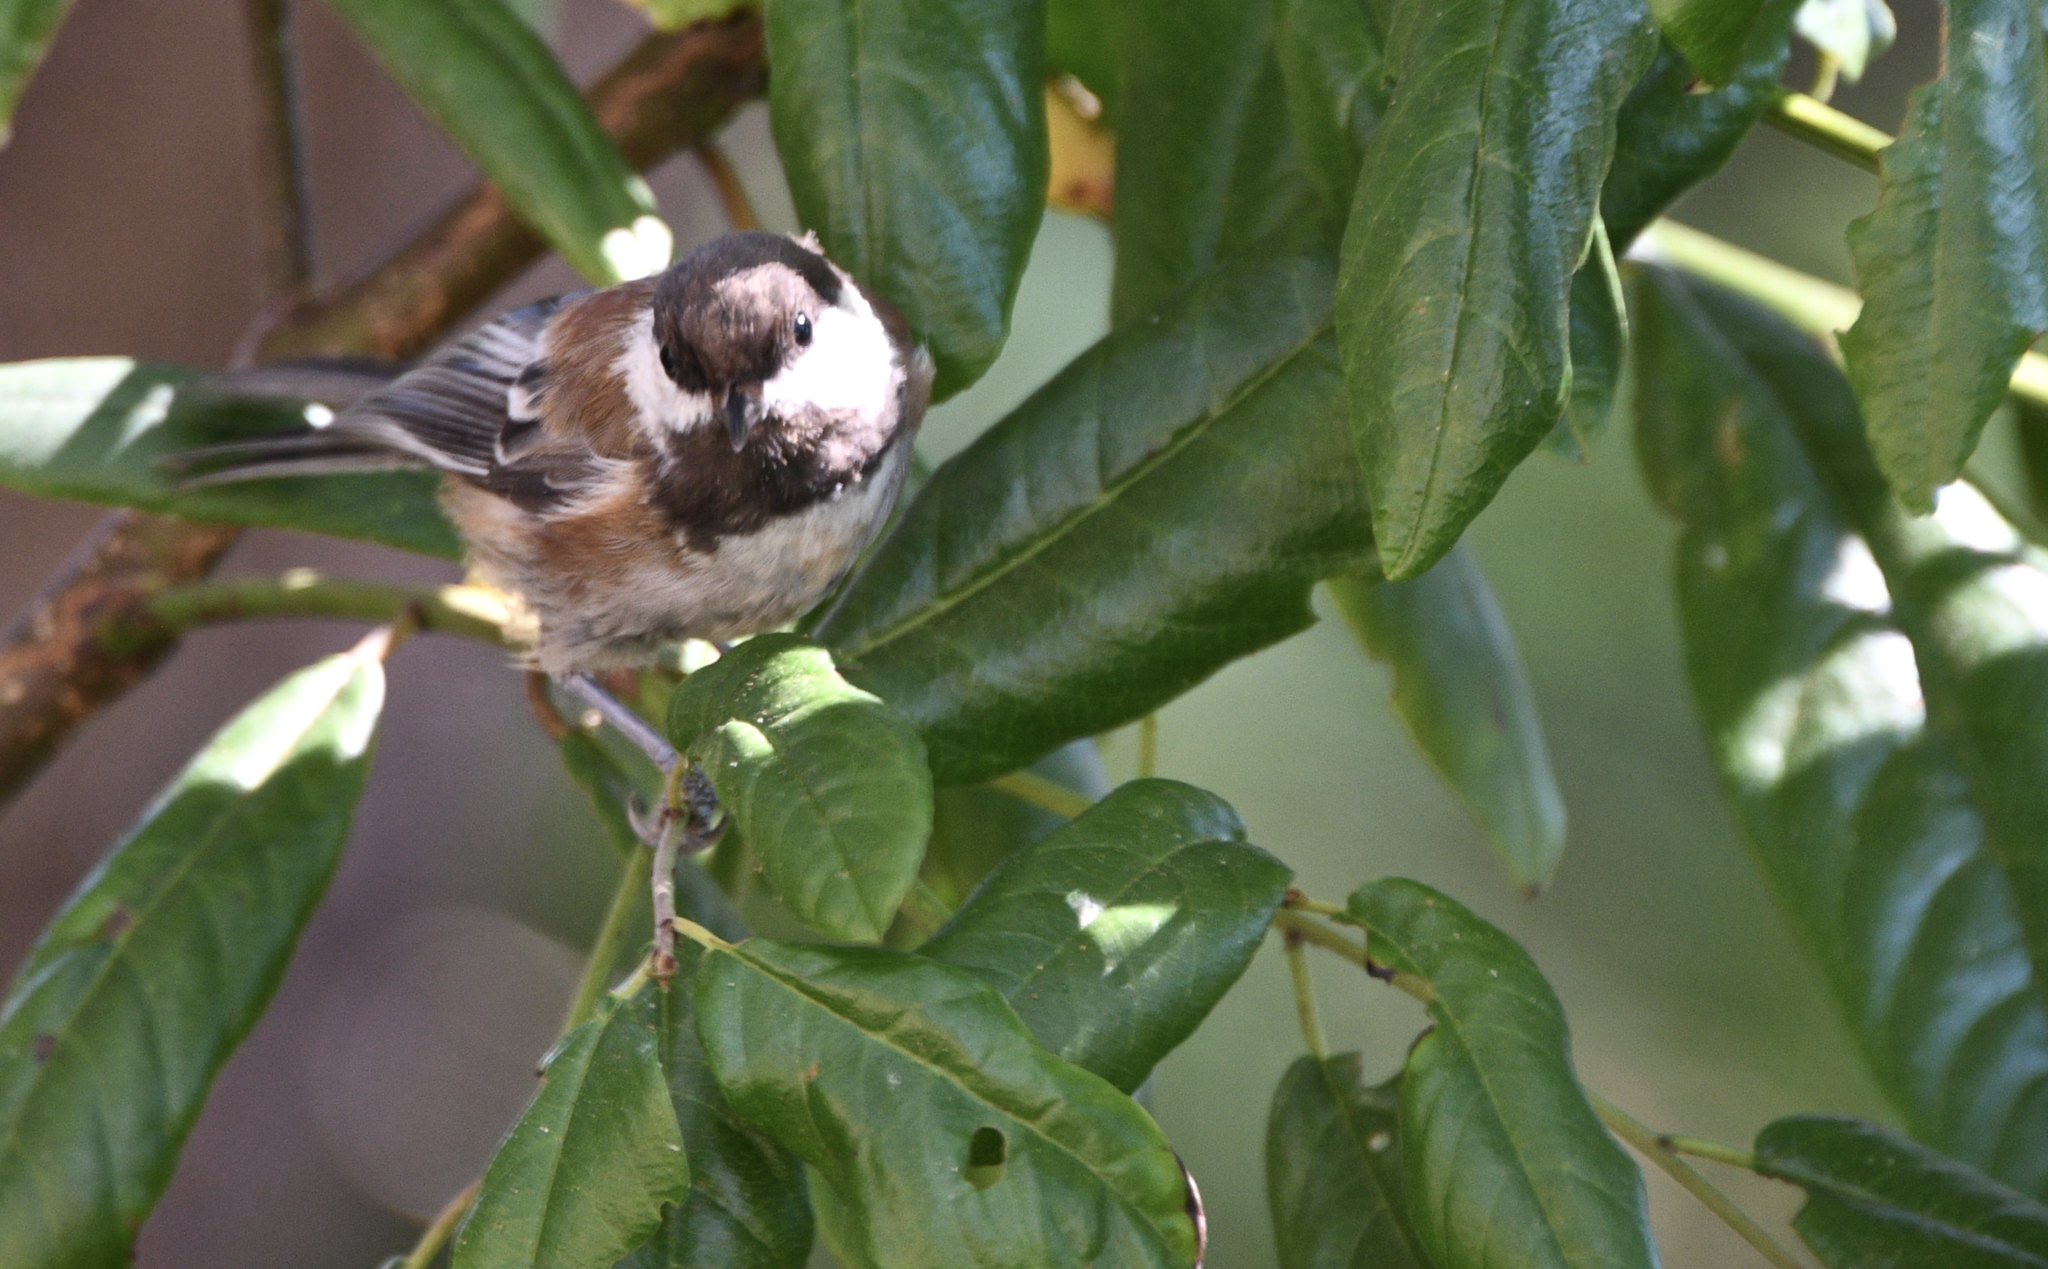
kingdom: Animalia
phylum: Chordata
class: Aves
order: Passeriformes
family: Paridae
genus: Poecile
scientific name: Poecile rufescens
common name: Chestnut-backed chickadee
